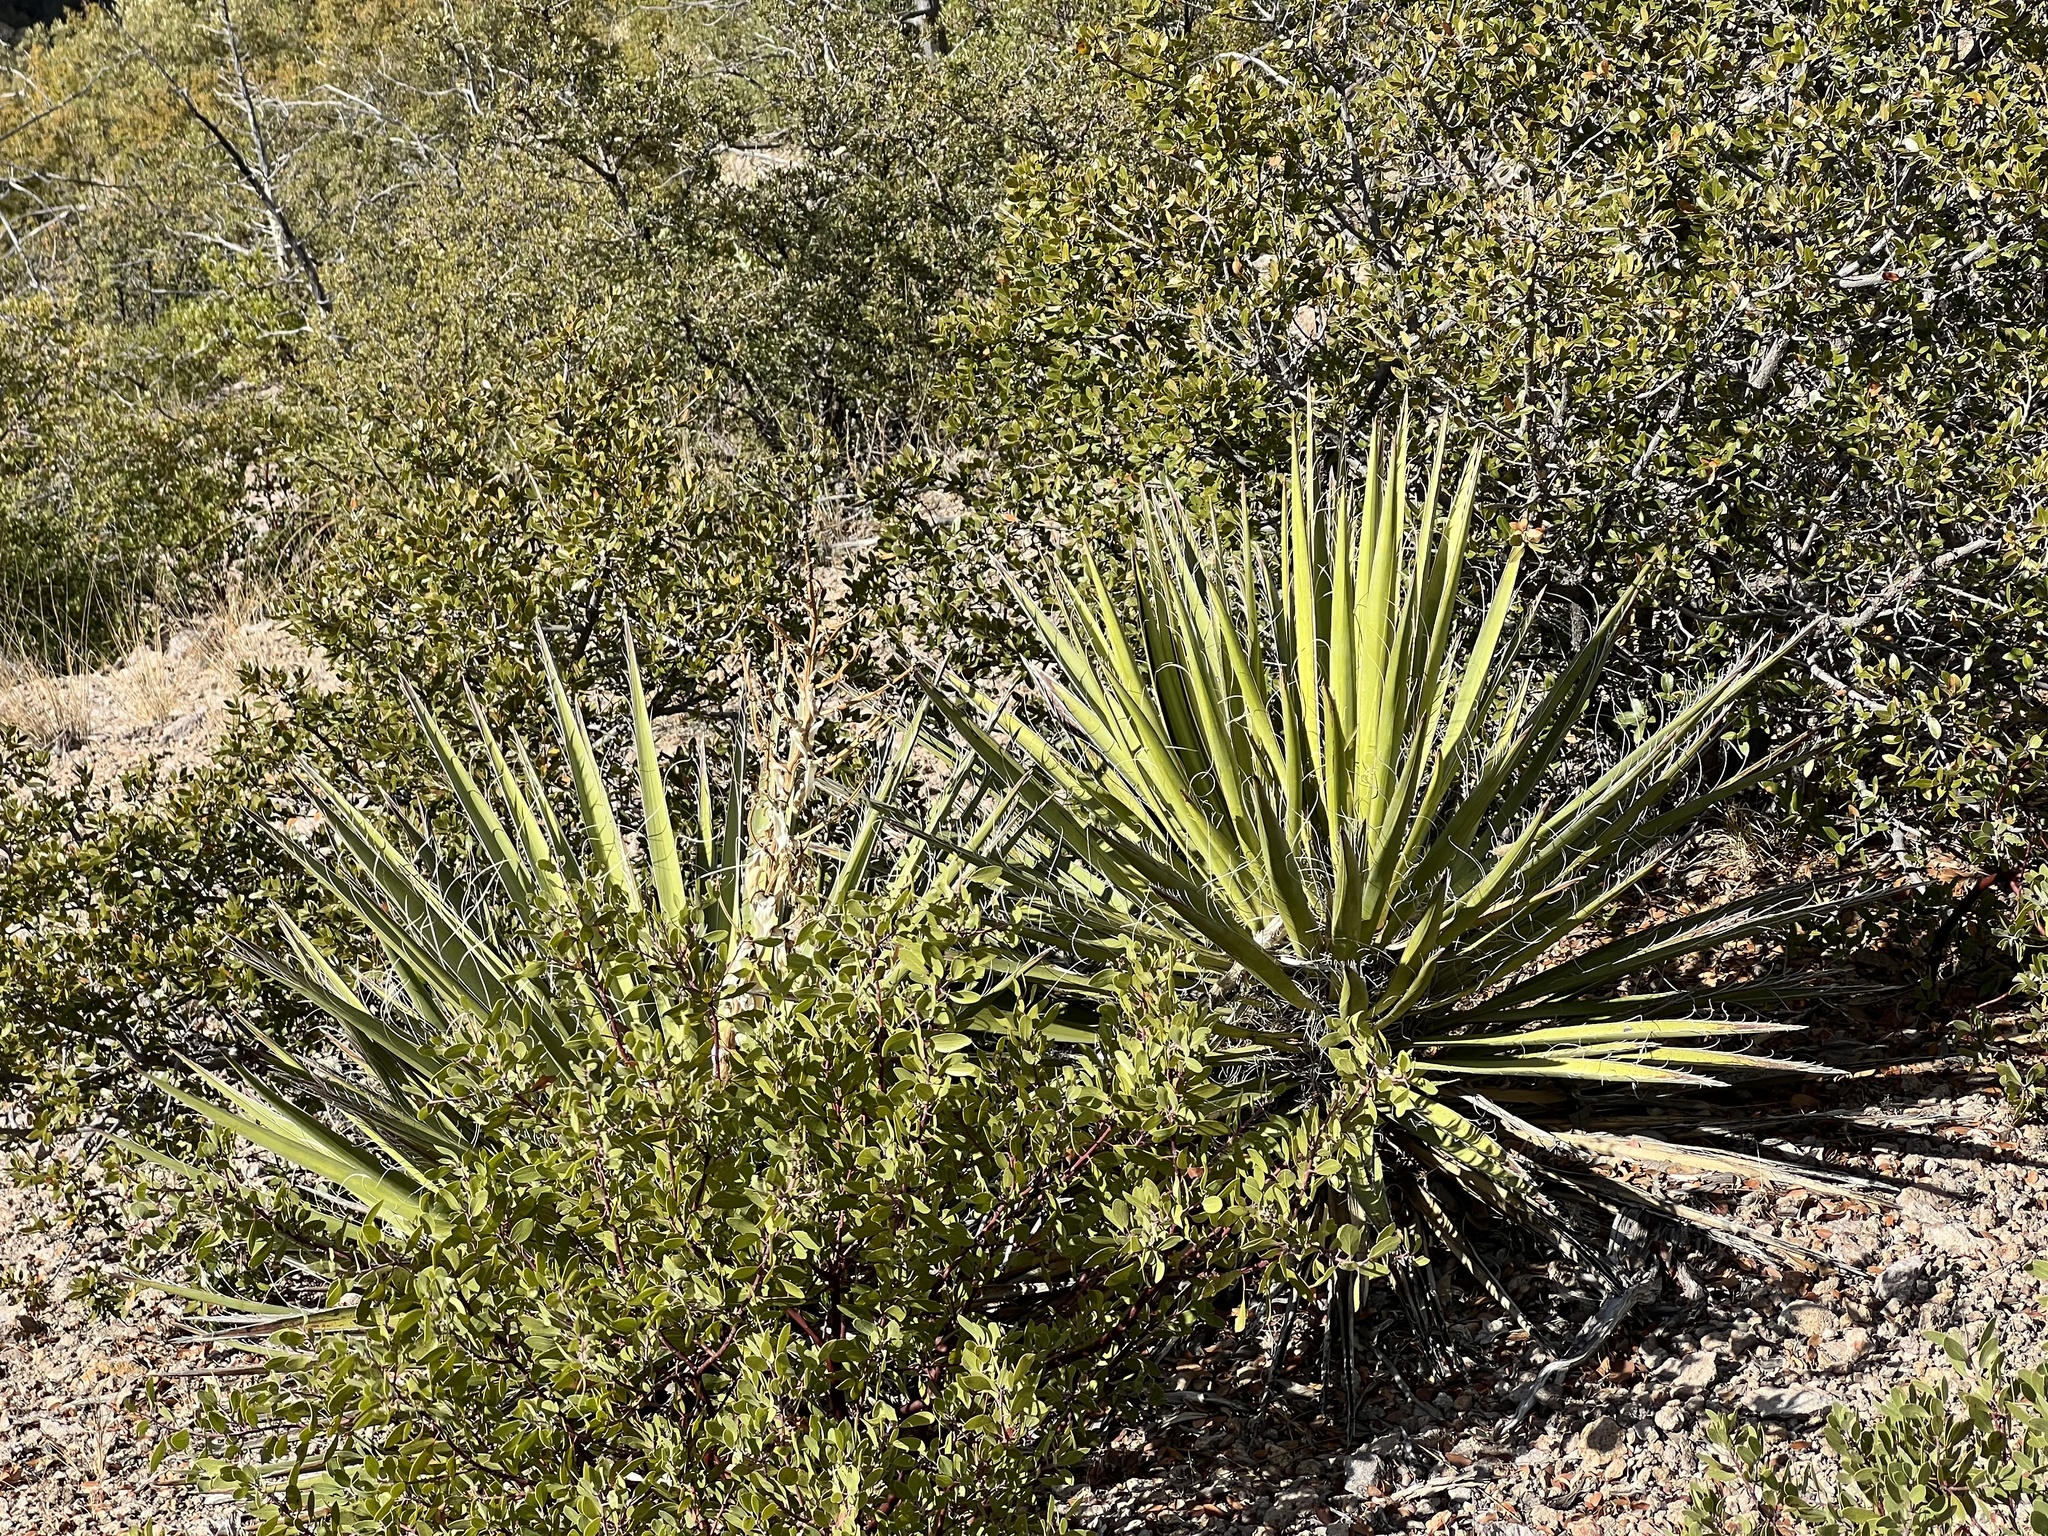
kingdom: Plantae
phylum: Tracheophyta
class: Liliopsida
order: Asparagales
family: Asparagaceae
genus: Yucca
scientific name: Yucca baccata
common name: Banana yucca
